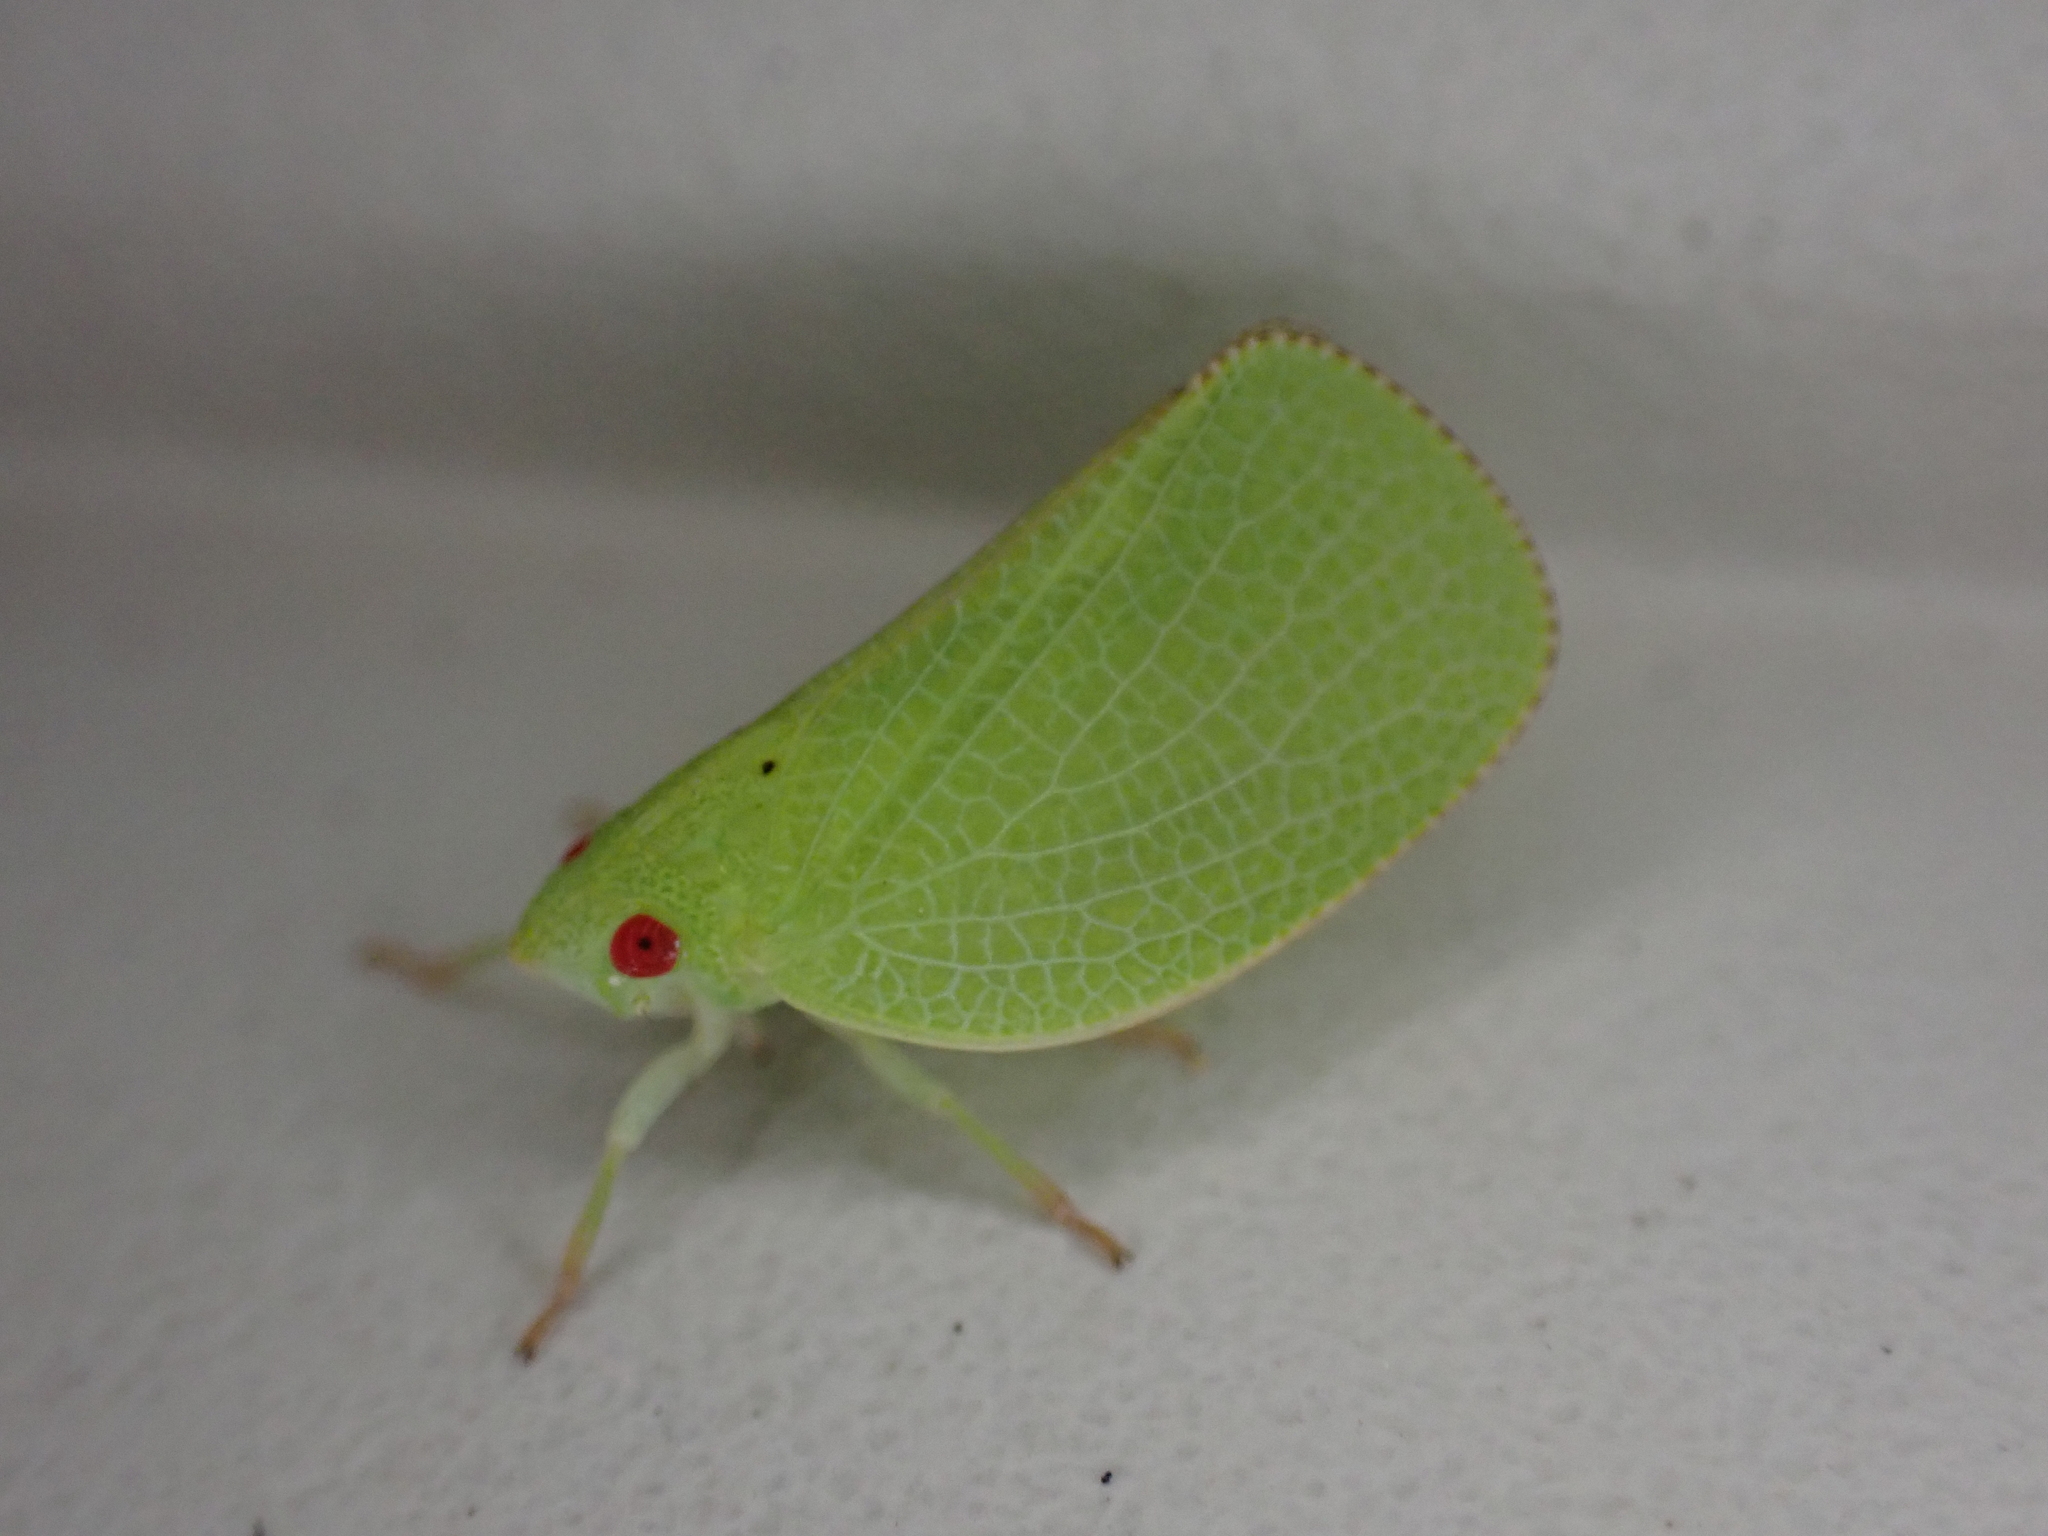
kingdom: Animalia
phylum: Arthropoda
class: Insecta
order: Hemiptera
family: Acanaloniidae
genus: Acanalonia
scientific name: Acanalonia conica
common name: Green cone-headed planthopper
